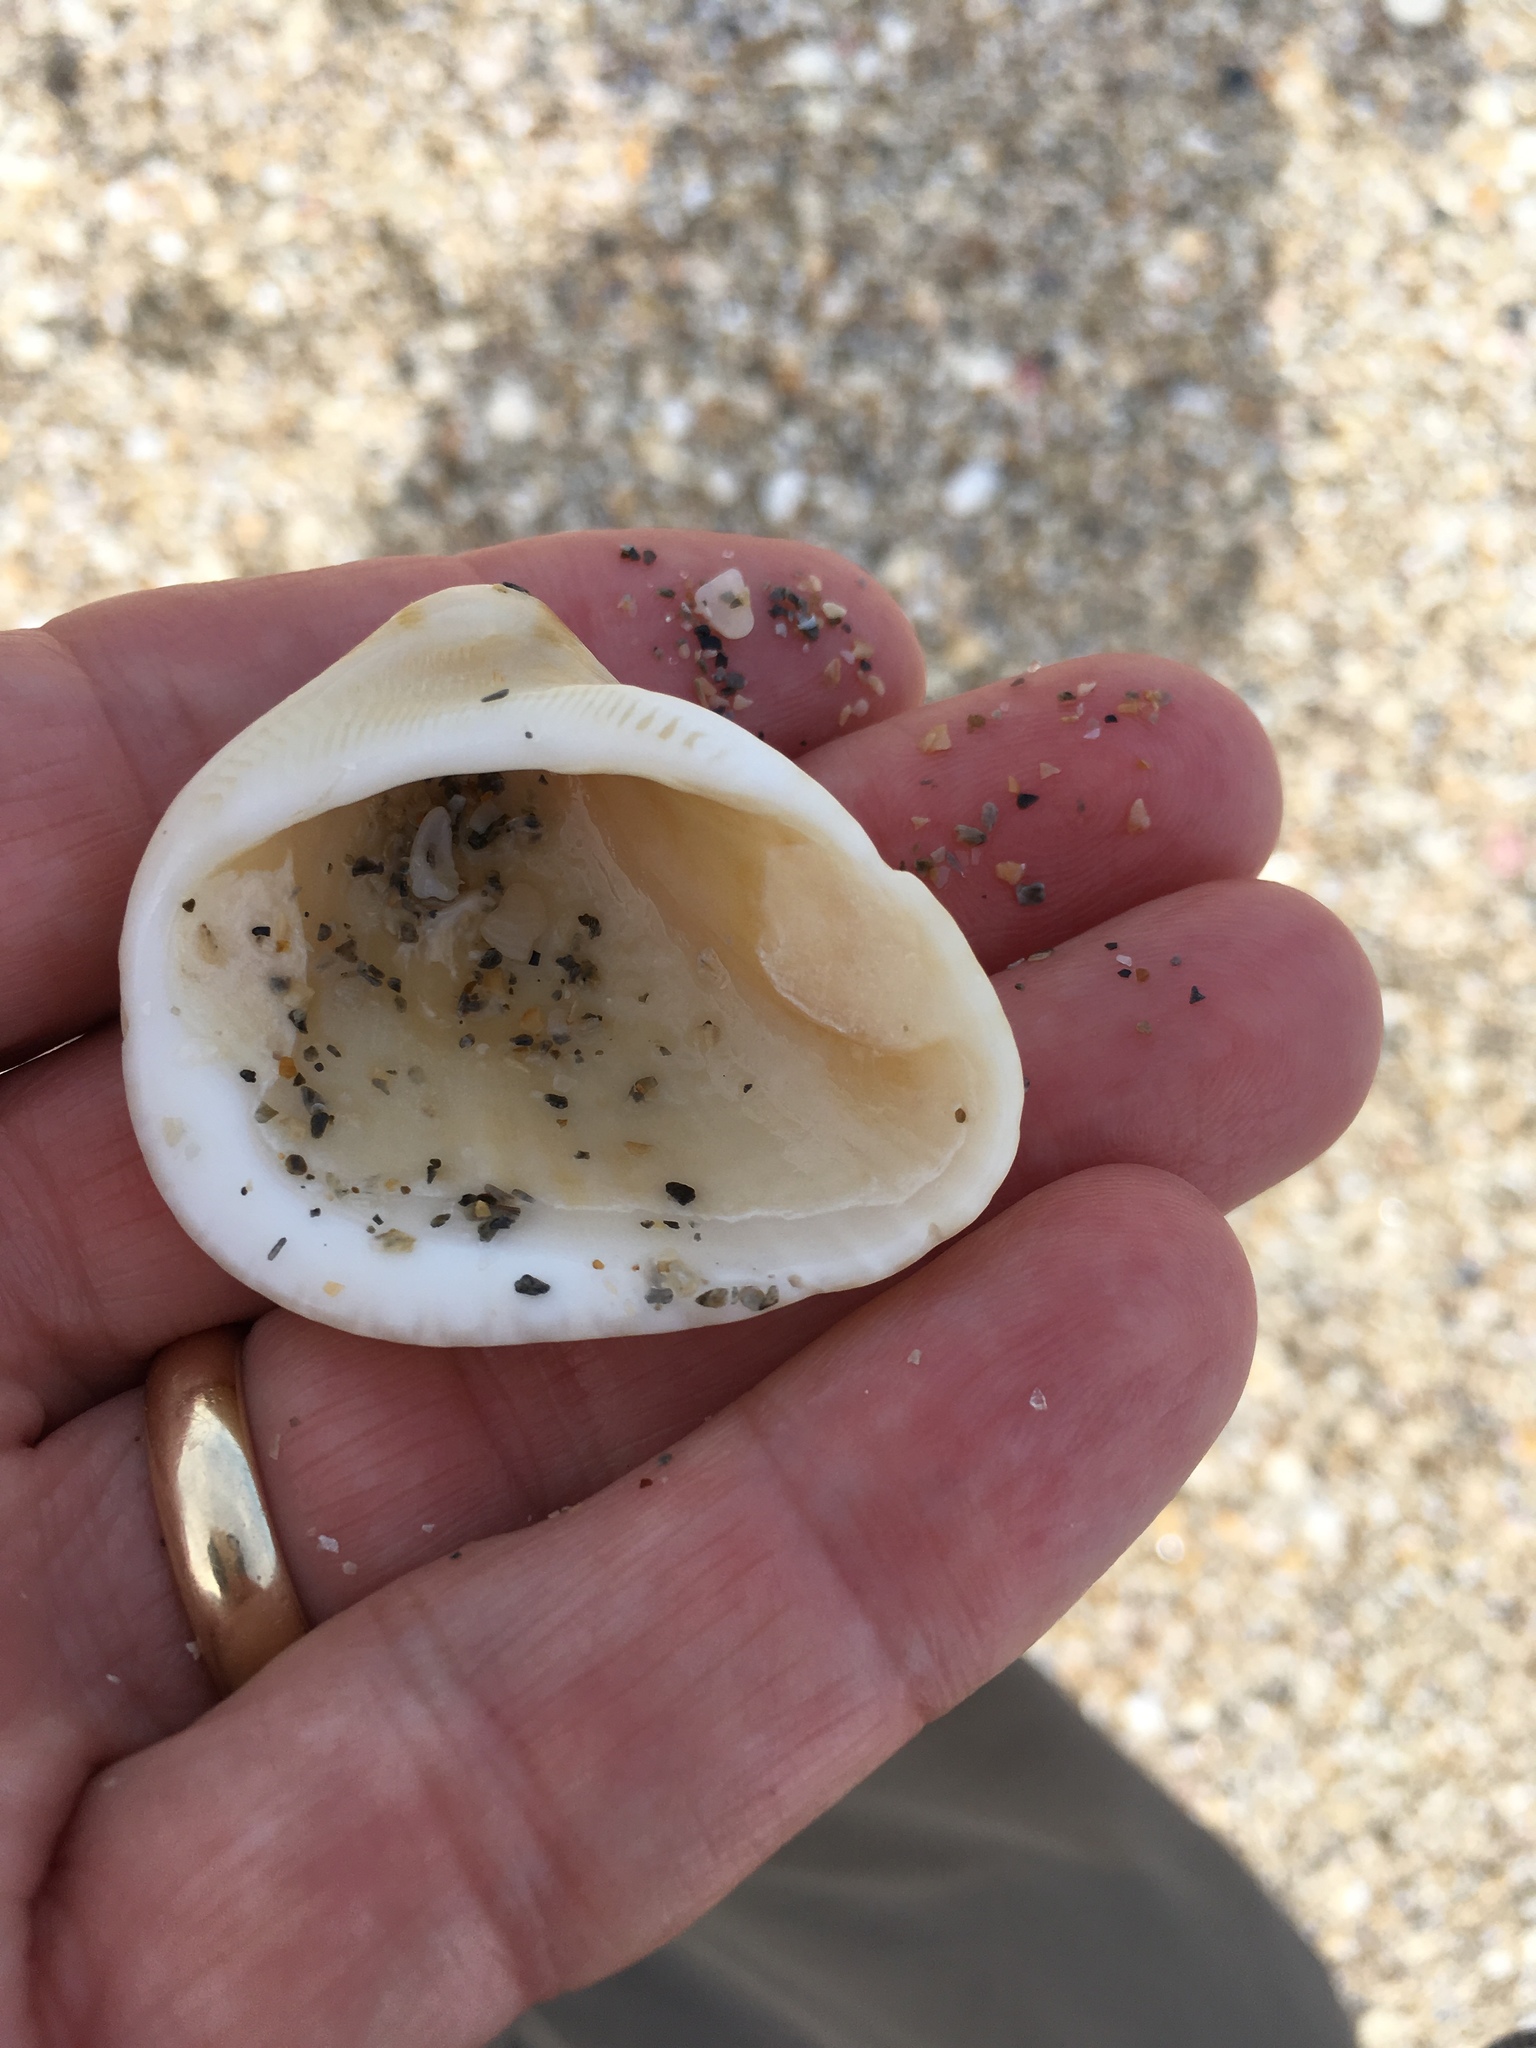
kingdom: Animalia
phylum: Mollusca
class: Bivalvia
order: Arcida
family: Noetiidae
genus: Noetia
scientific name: Noetia ponderosa
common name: Ponderous ark
